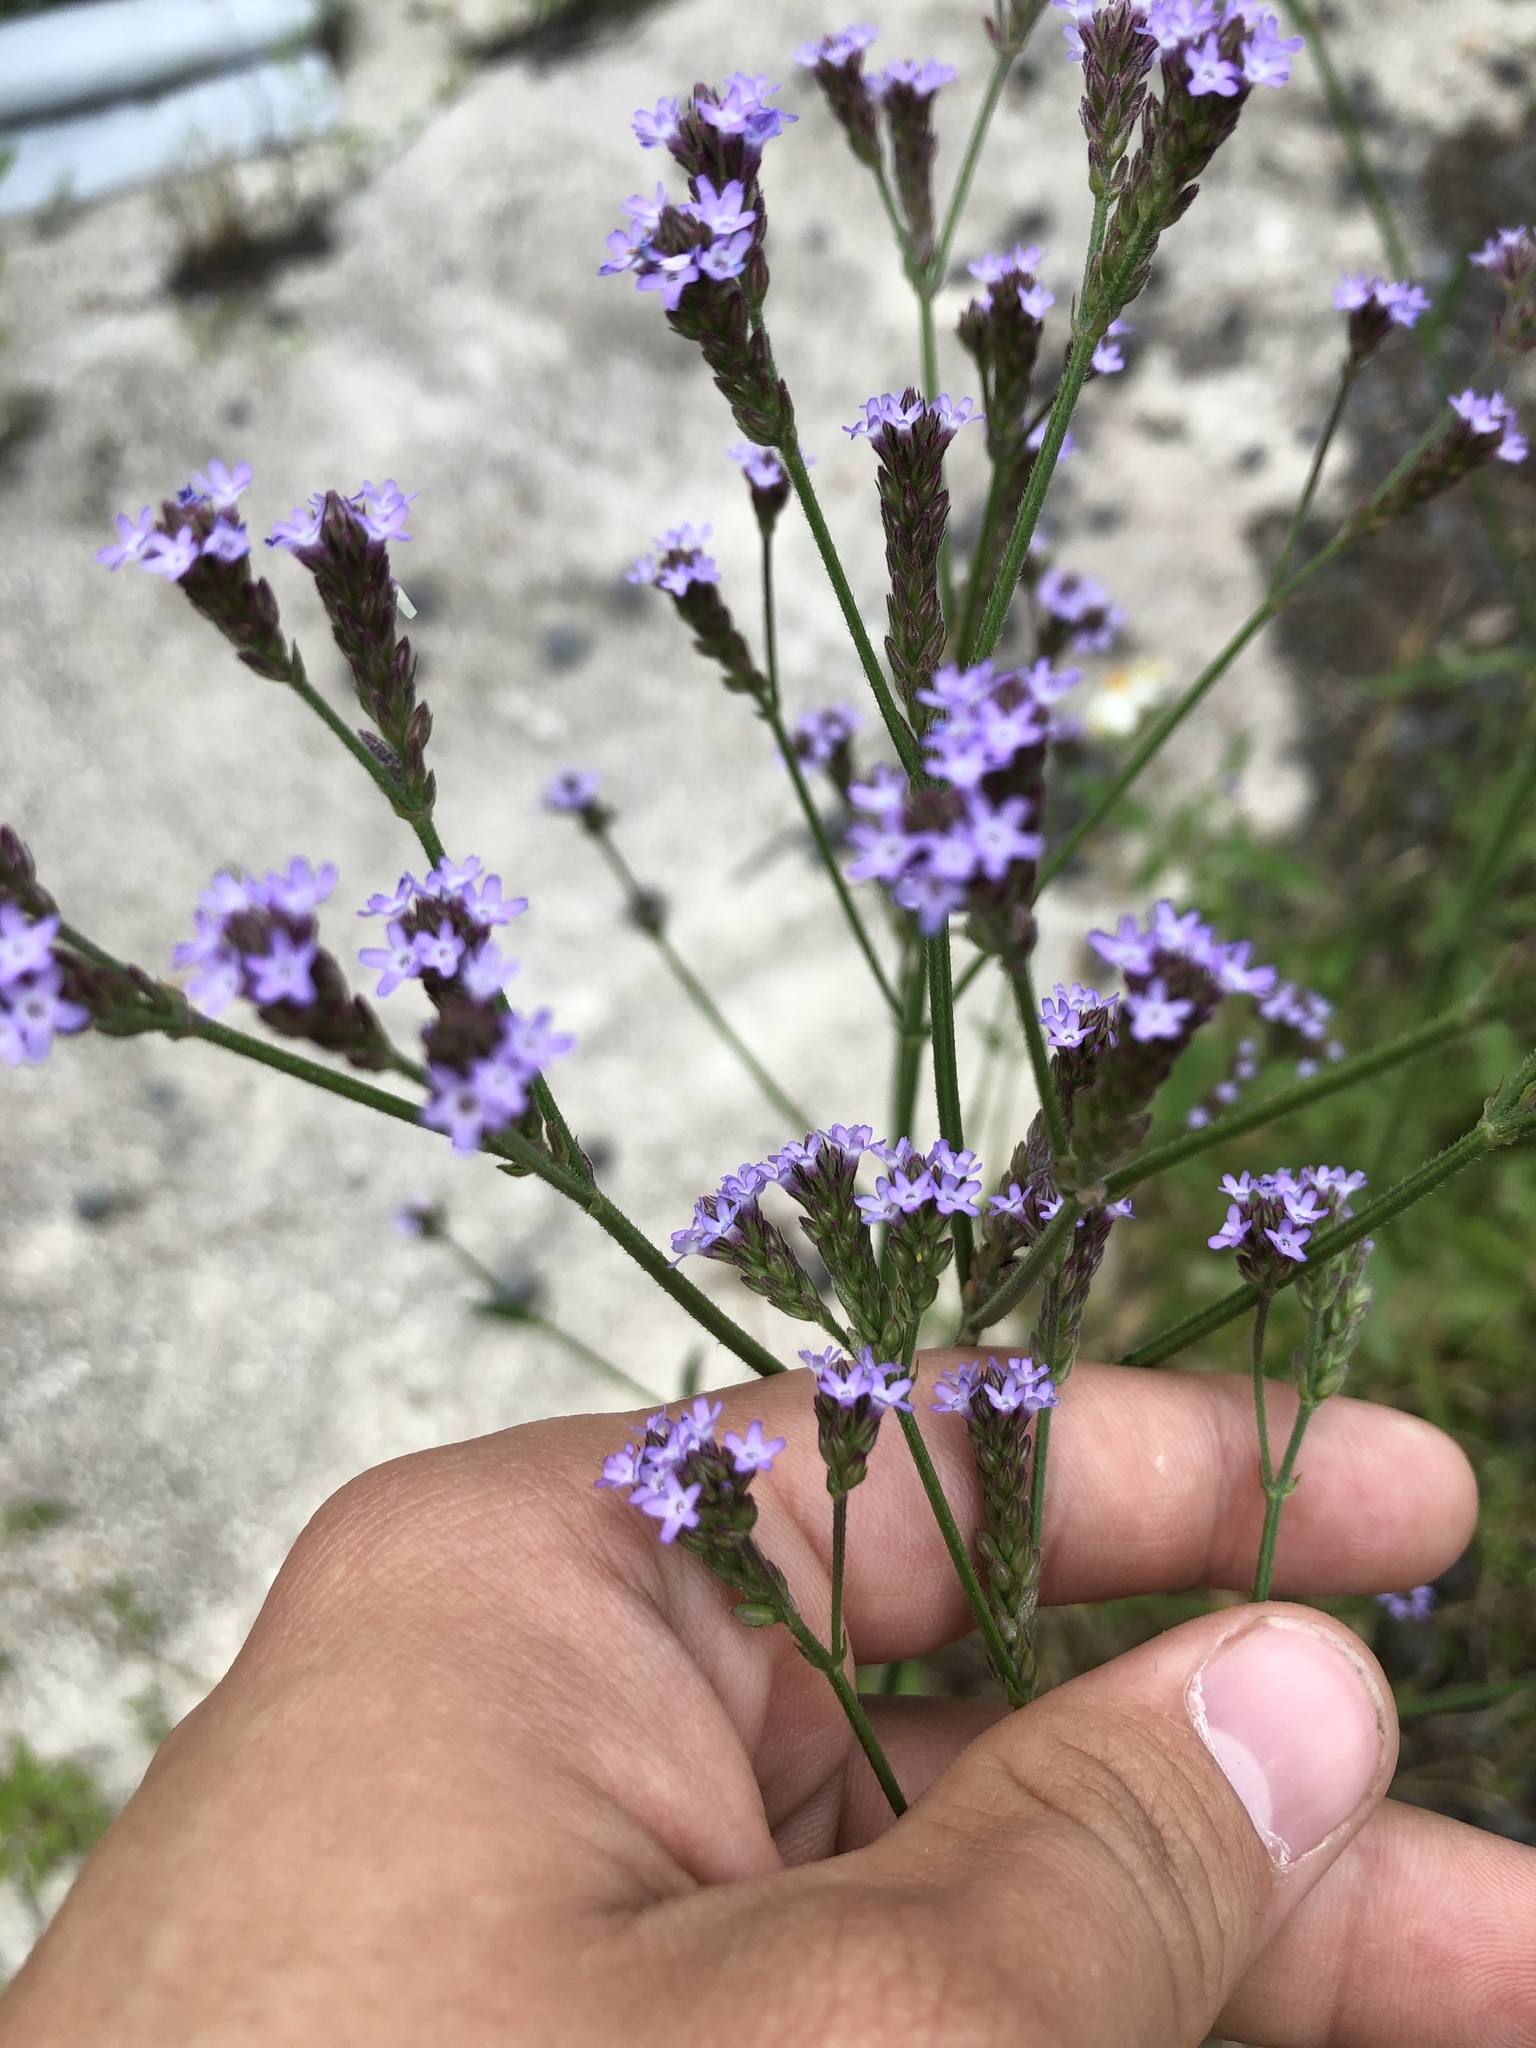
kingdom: Plantae
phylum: Tracheophyta
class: Magnoliopsida
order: Lamiales
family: Verbenaceae
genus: Verbena
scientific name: Verbena brasiliensis
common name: Brazilian vervain
